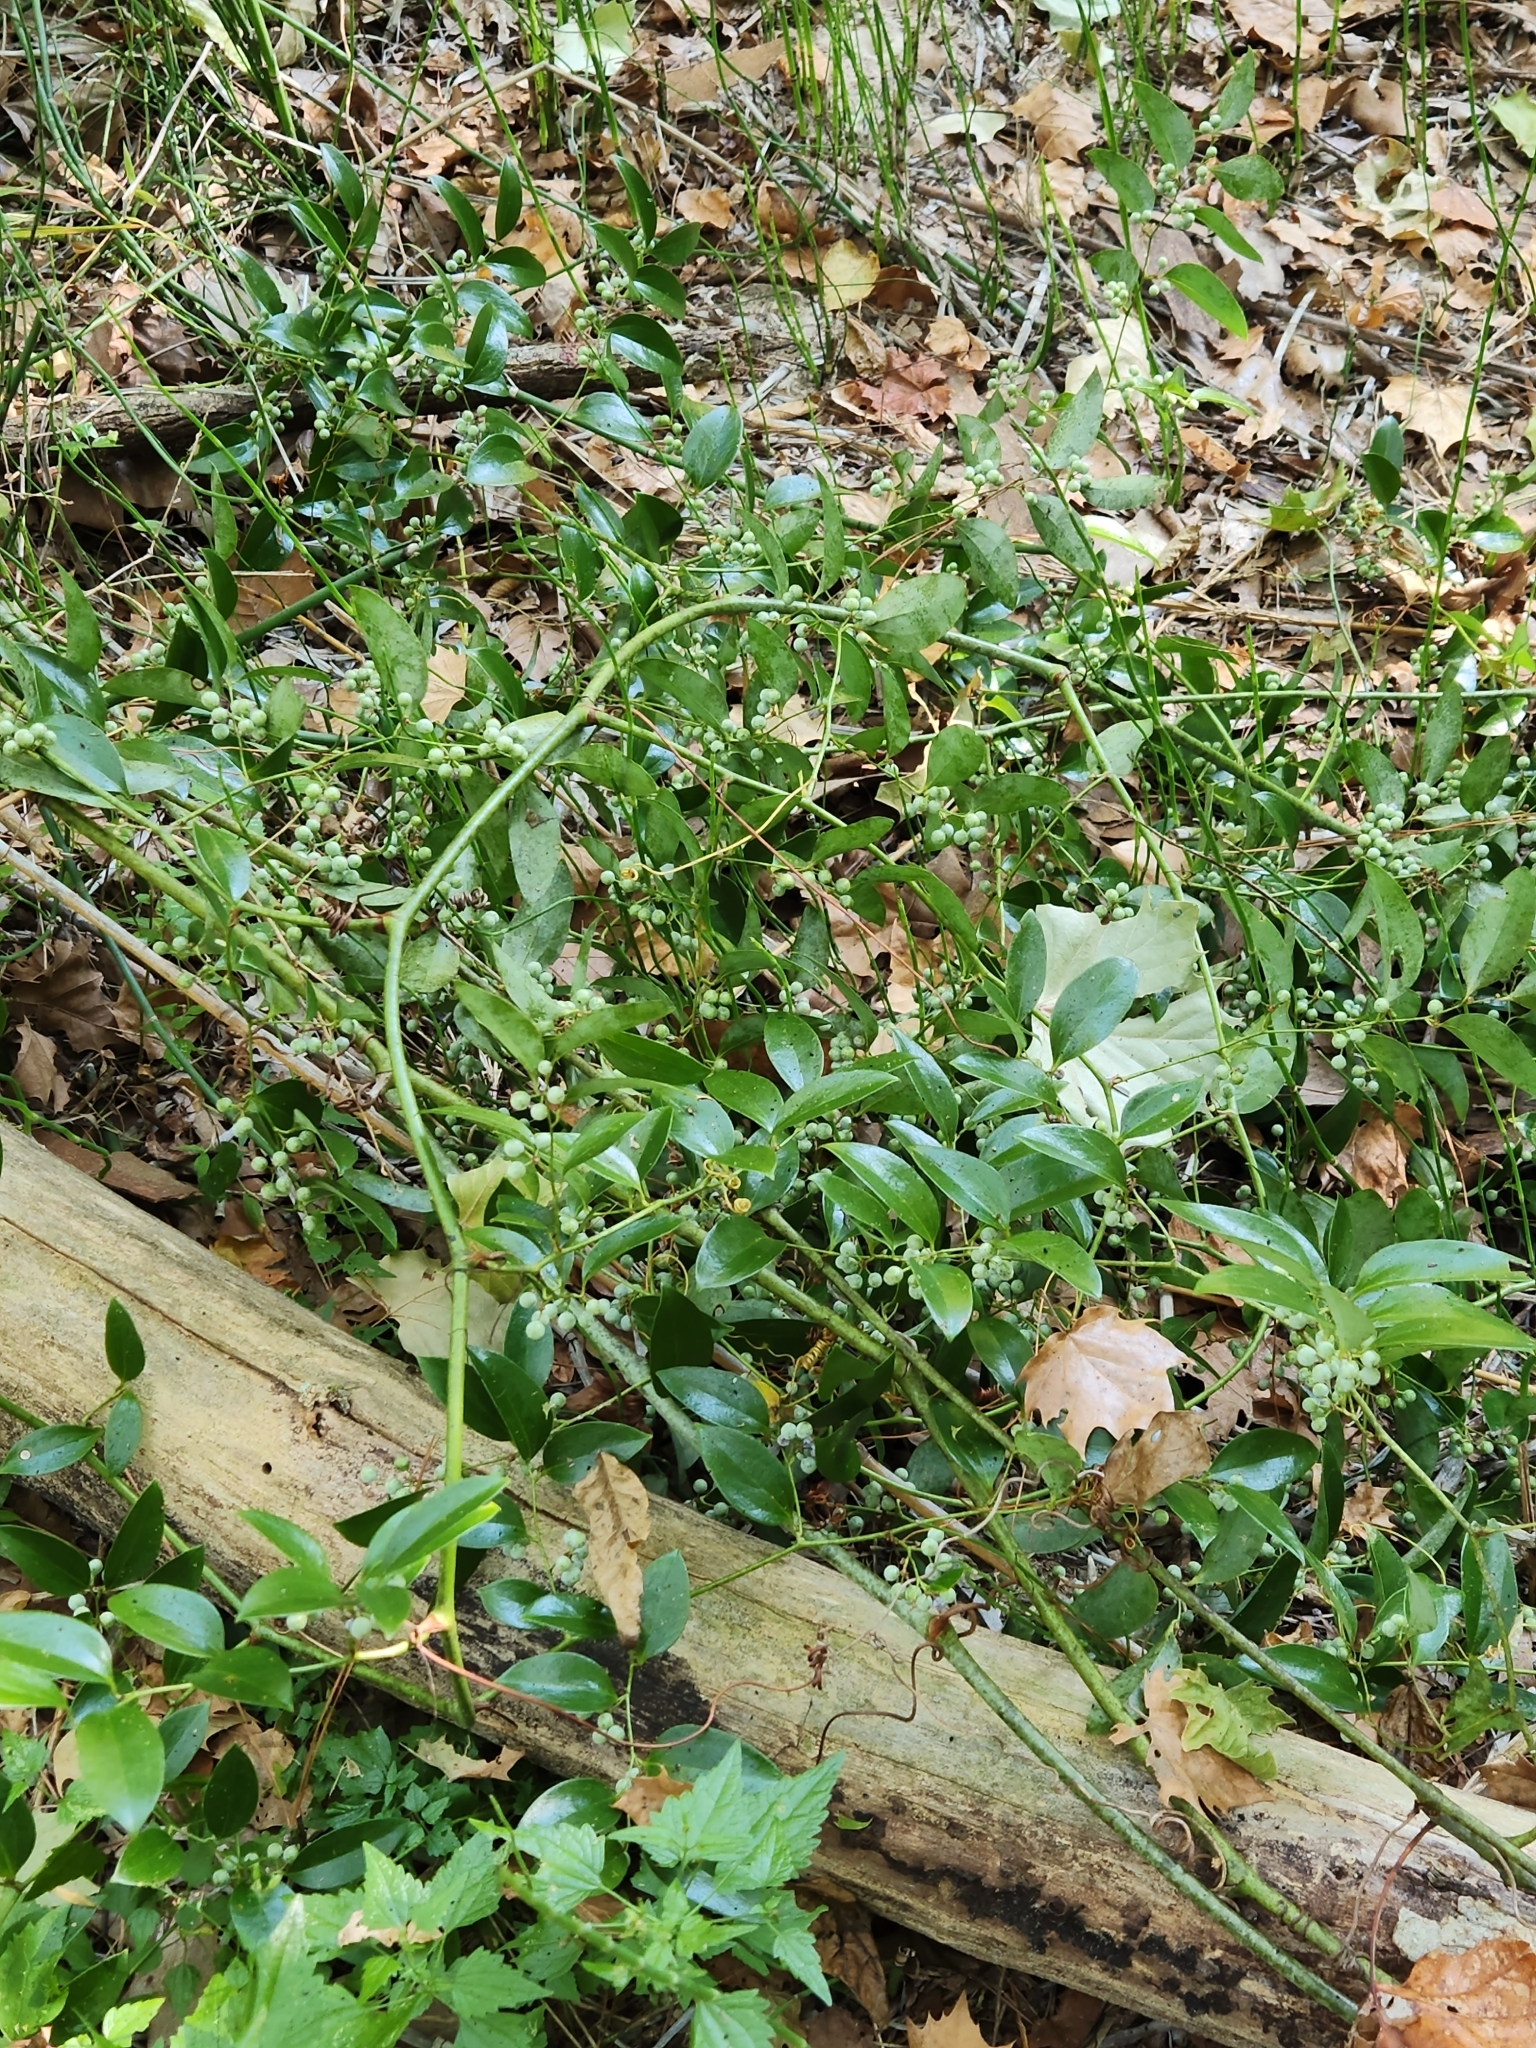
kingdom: Plantae
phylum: Tracheophyta
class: Liliopsida
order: Liliales
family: Smilacaceae
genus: Smilax
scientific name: Smilax maritima
